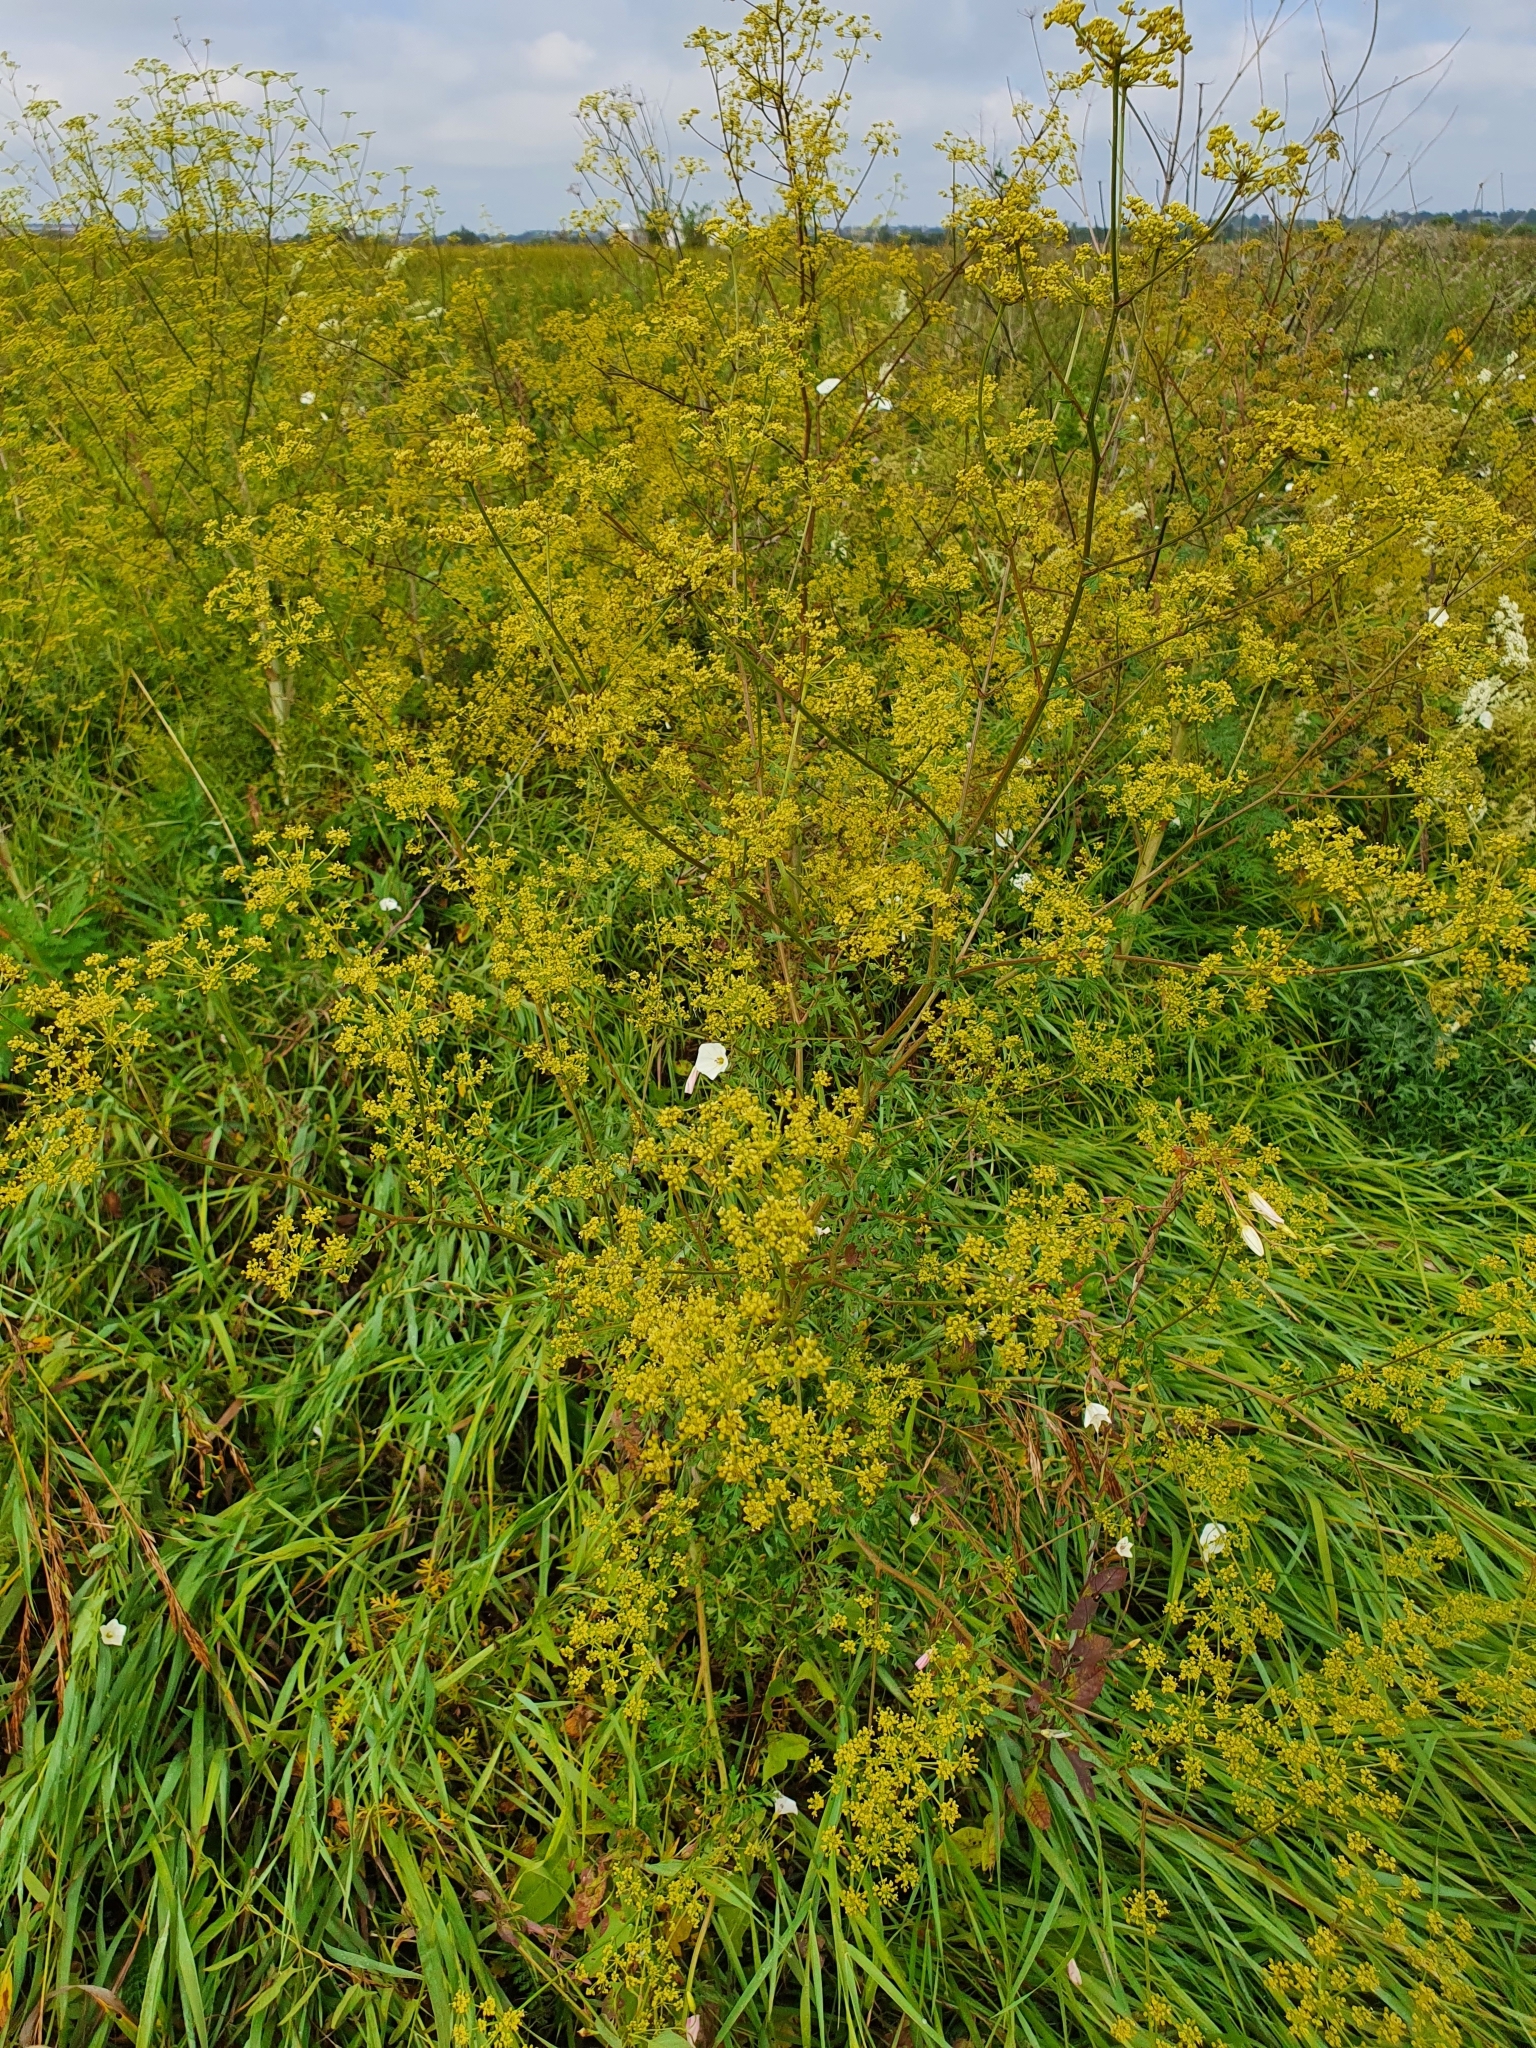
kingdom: Plantae
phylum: Tracheophyta
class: Magnoliopsida
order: Apiales
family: Apiaceae
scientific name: Apiaceae
